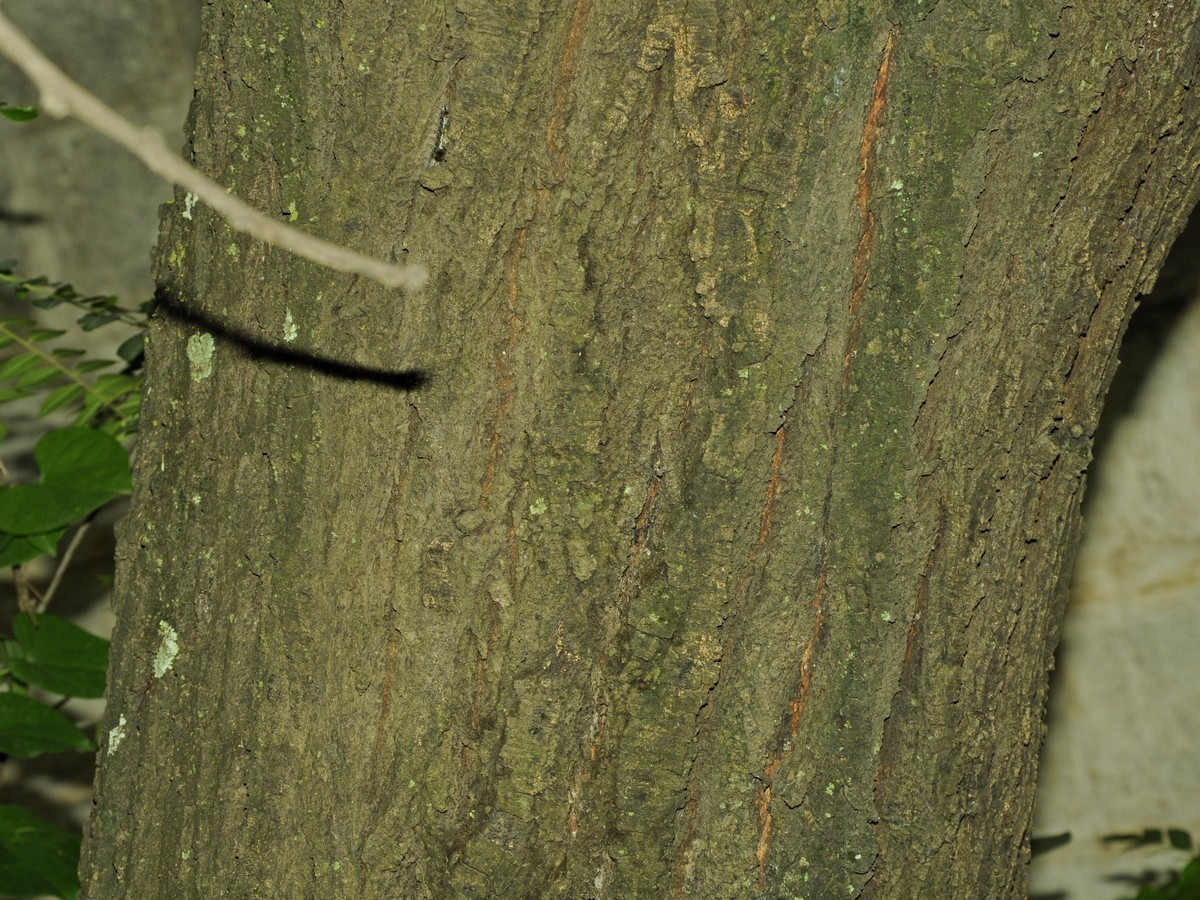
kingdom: Plantae
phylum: Tracheophyta
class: Magnoliopsida
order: Fabales
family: Fabaceae
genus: Vachellia
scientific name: Vachellia nilotica
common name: Arabic gumtree
